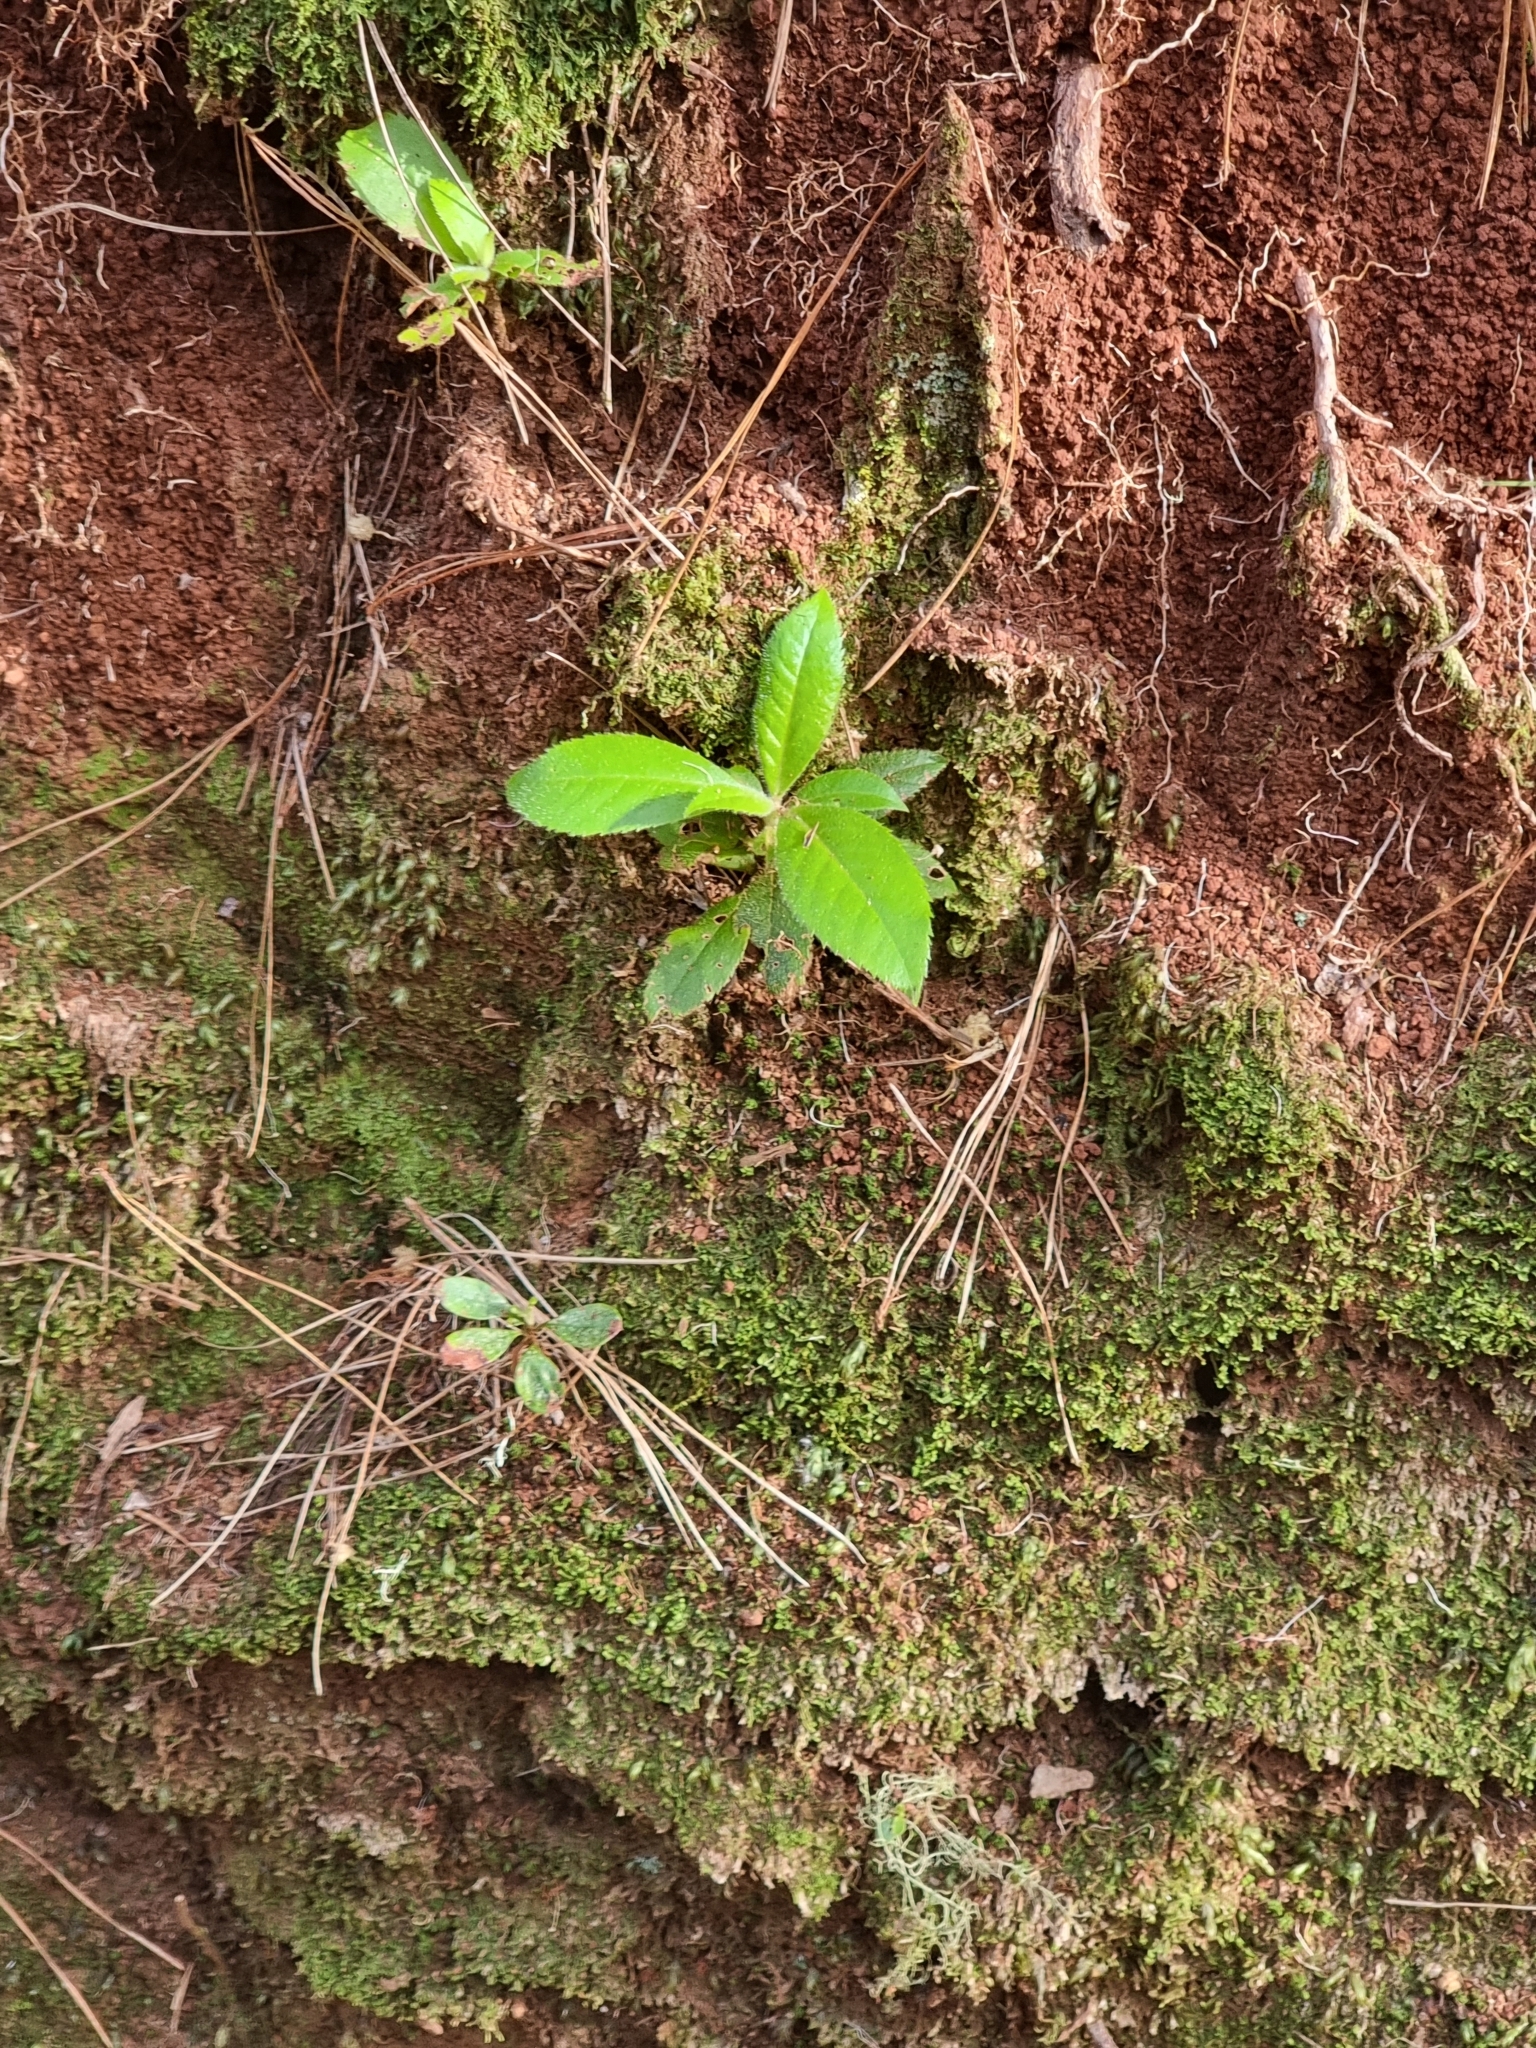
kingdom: Plantae
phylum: Tracheophyta
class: Magnoliopsida
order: Ericales
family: Clethraceae
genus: Clethra
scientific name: Clethra arborea
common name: Lily-of-the-valley-tree
